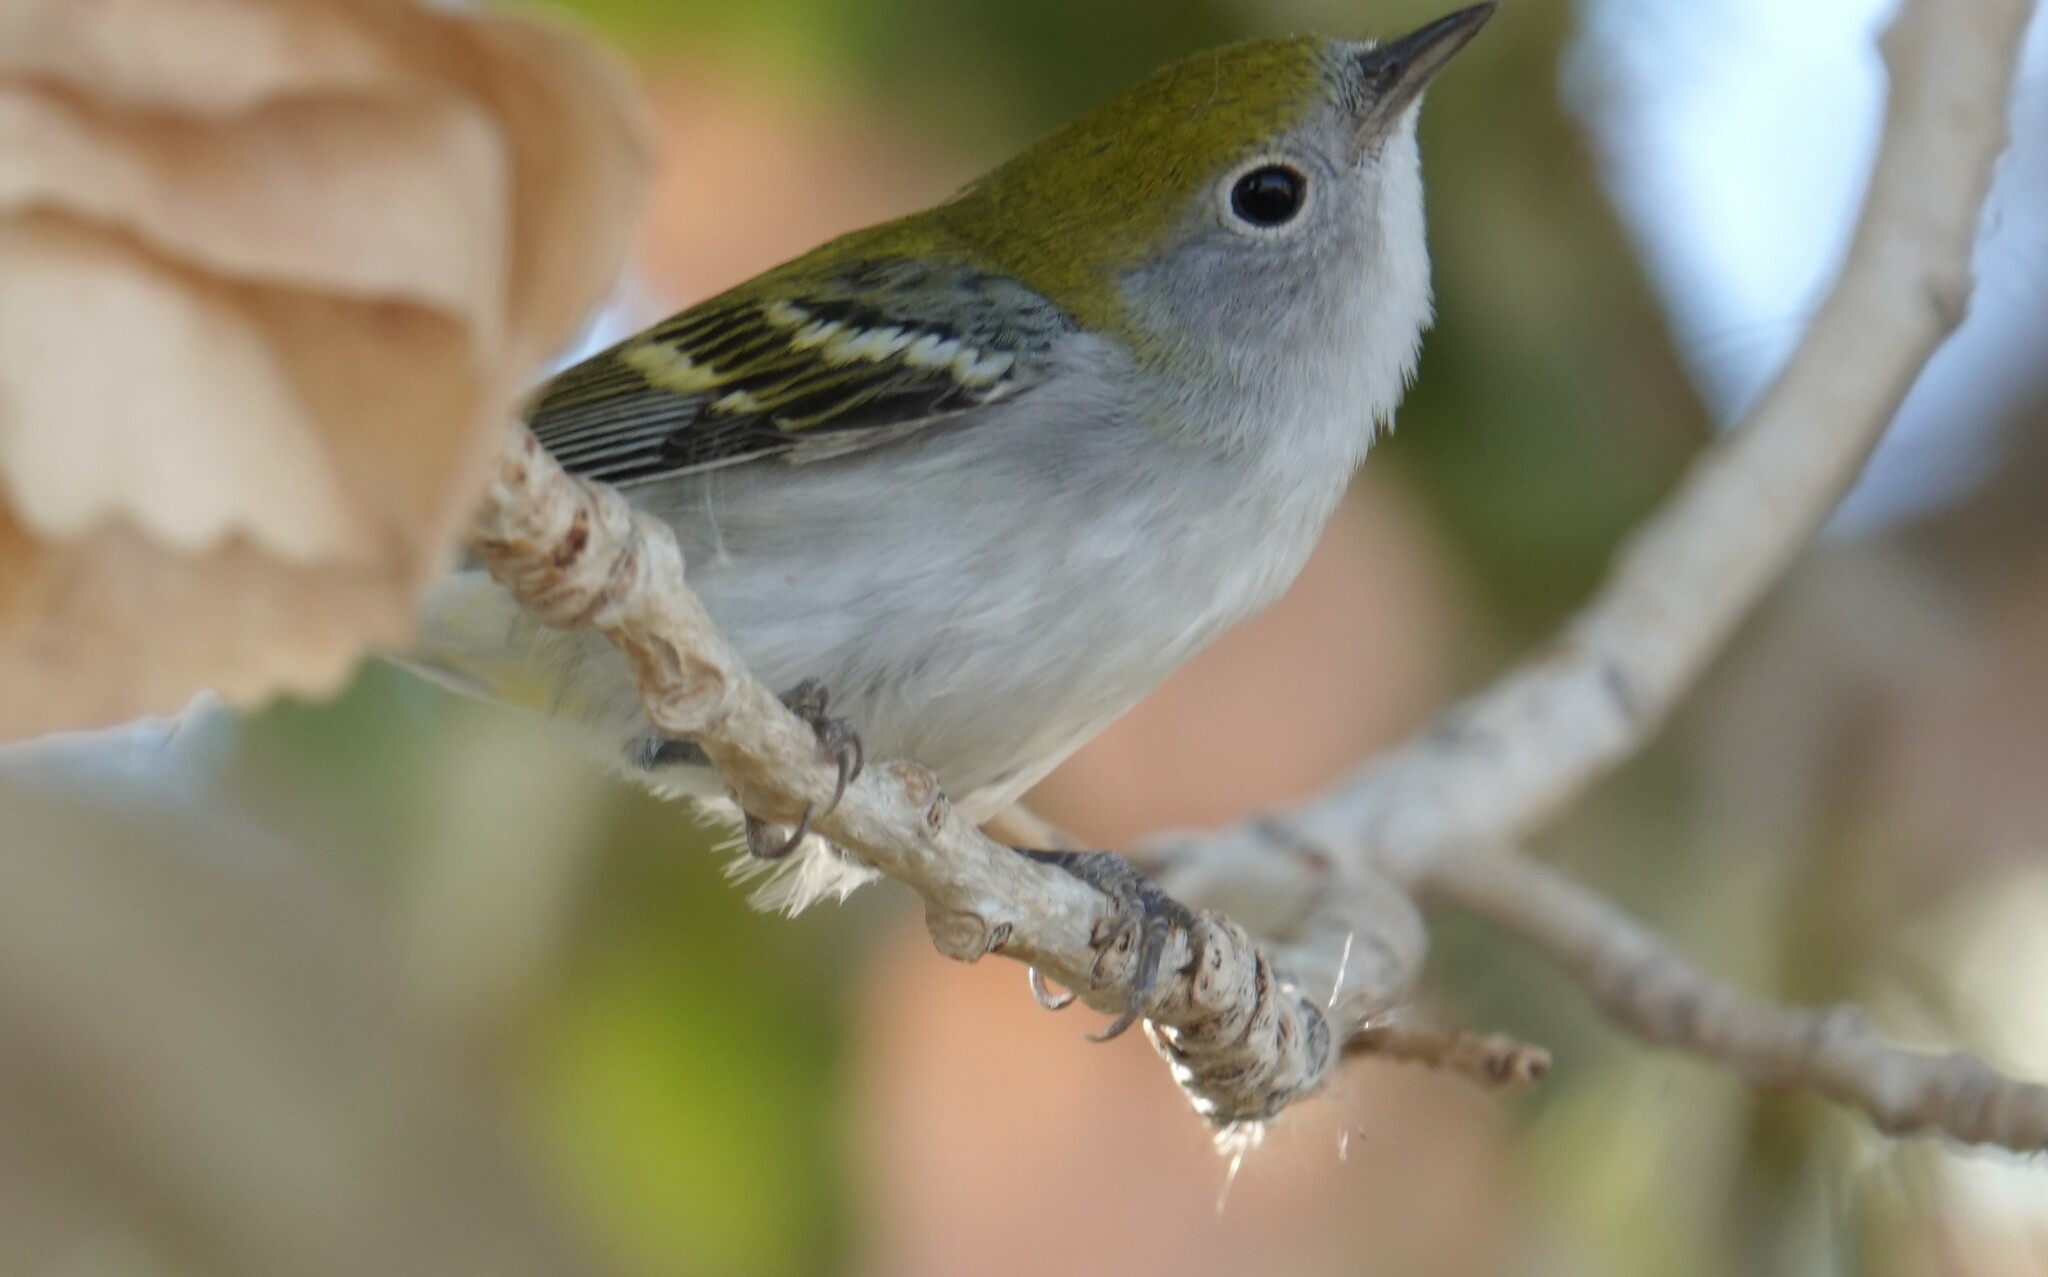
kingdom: Animalia
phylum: Chordata
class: Aves
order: Passeriformes
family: Parulidae
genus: Setophaga
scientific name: Setophaga pensylvanica
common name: Chestnut-sided warbler
